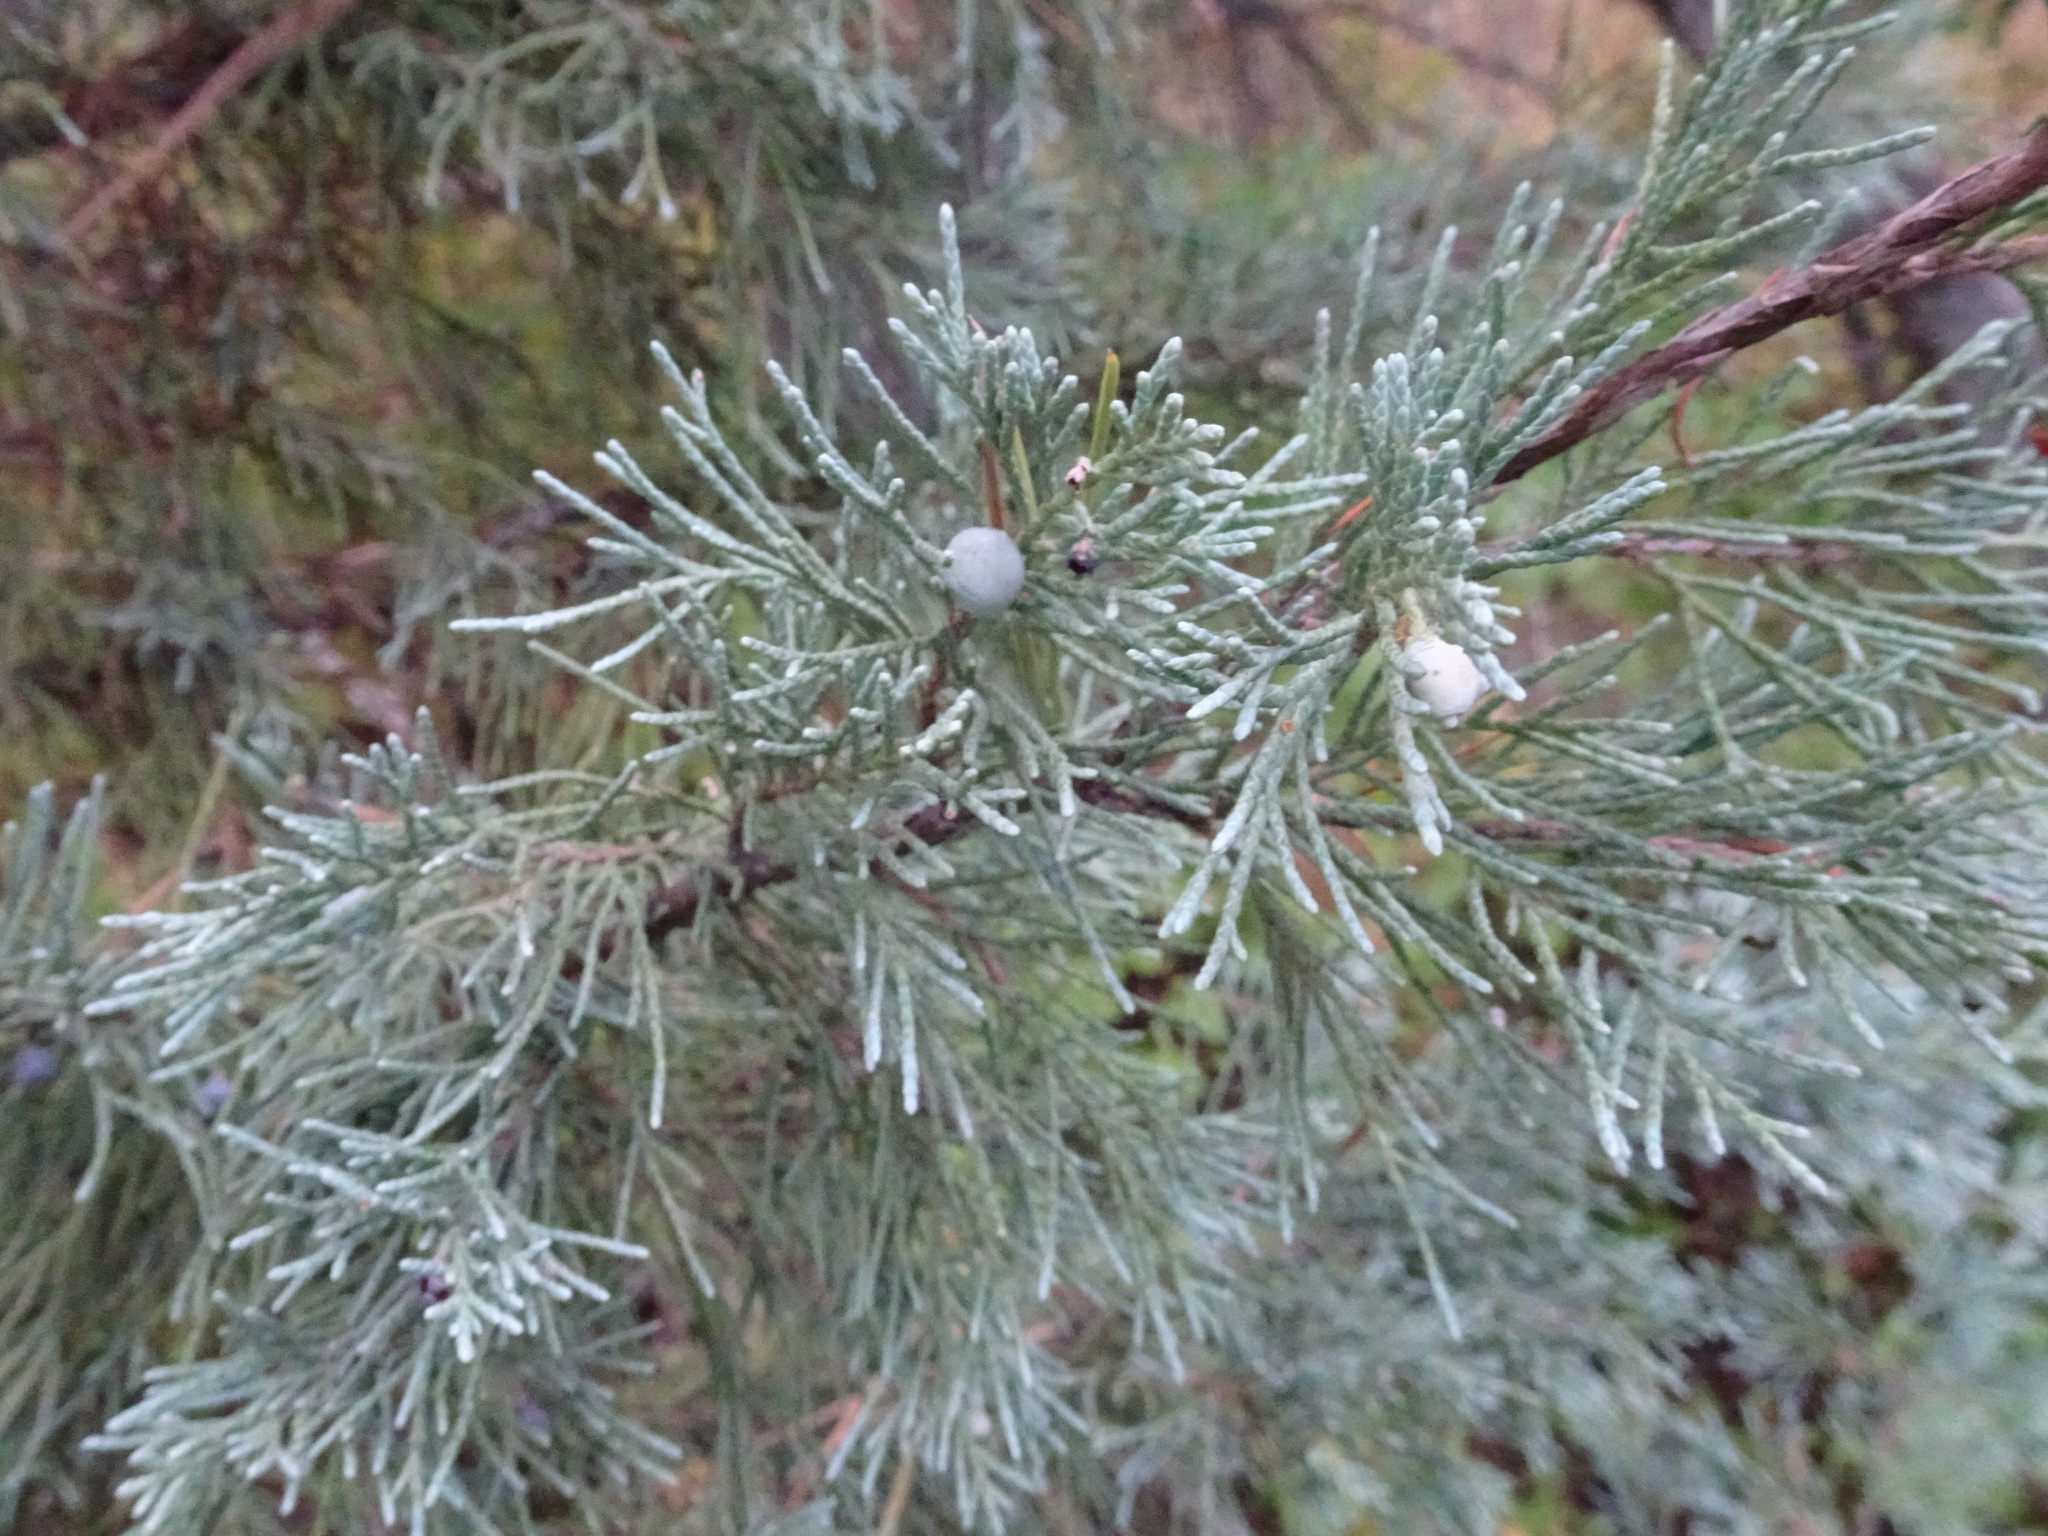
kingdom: Plantae
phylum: Tracheophyta
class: Pinopsida
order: Pinales
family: Cupressaceae
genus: Juniperus
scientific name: Juniperus scopulorum
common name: Rocky mountain juniper
